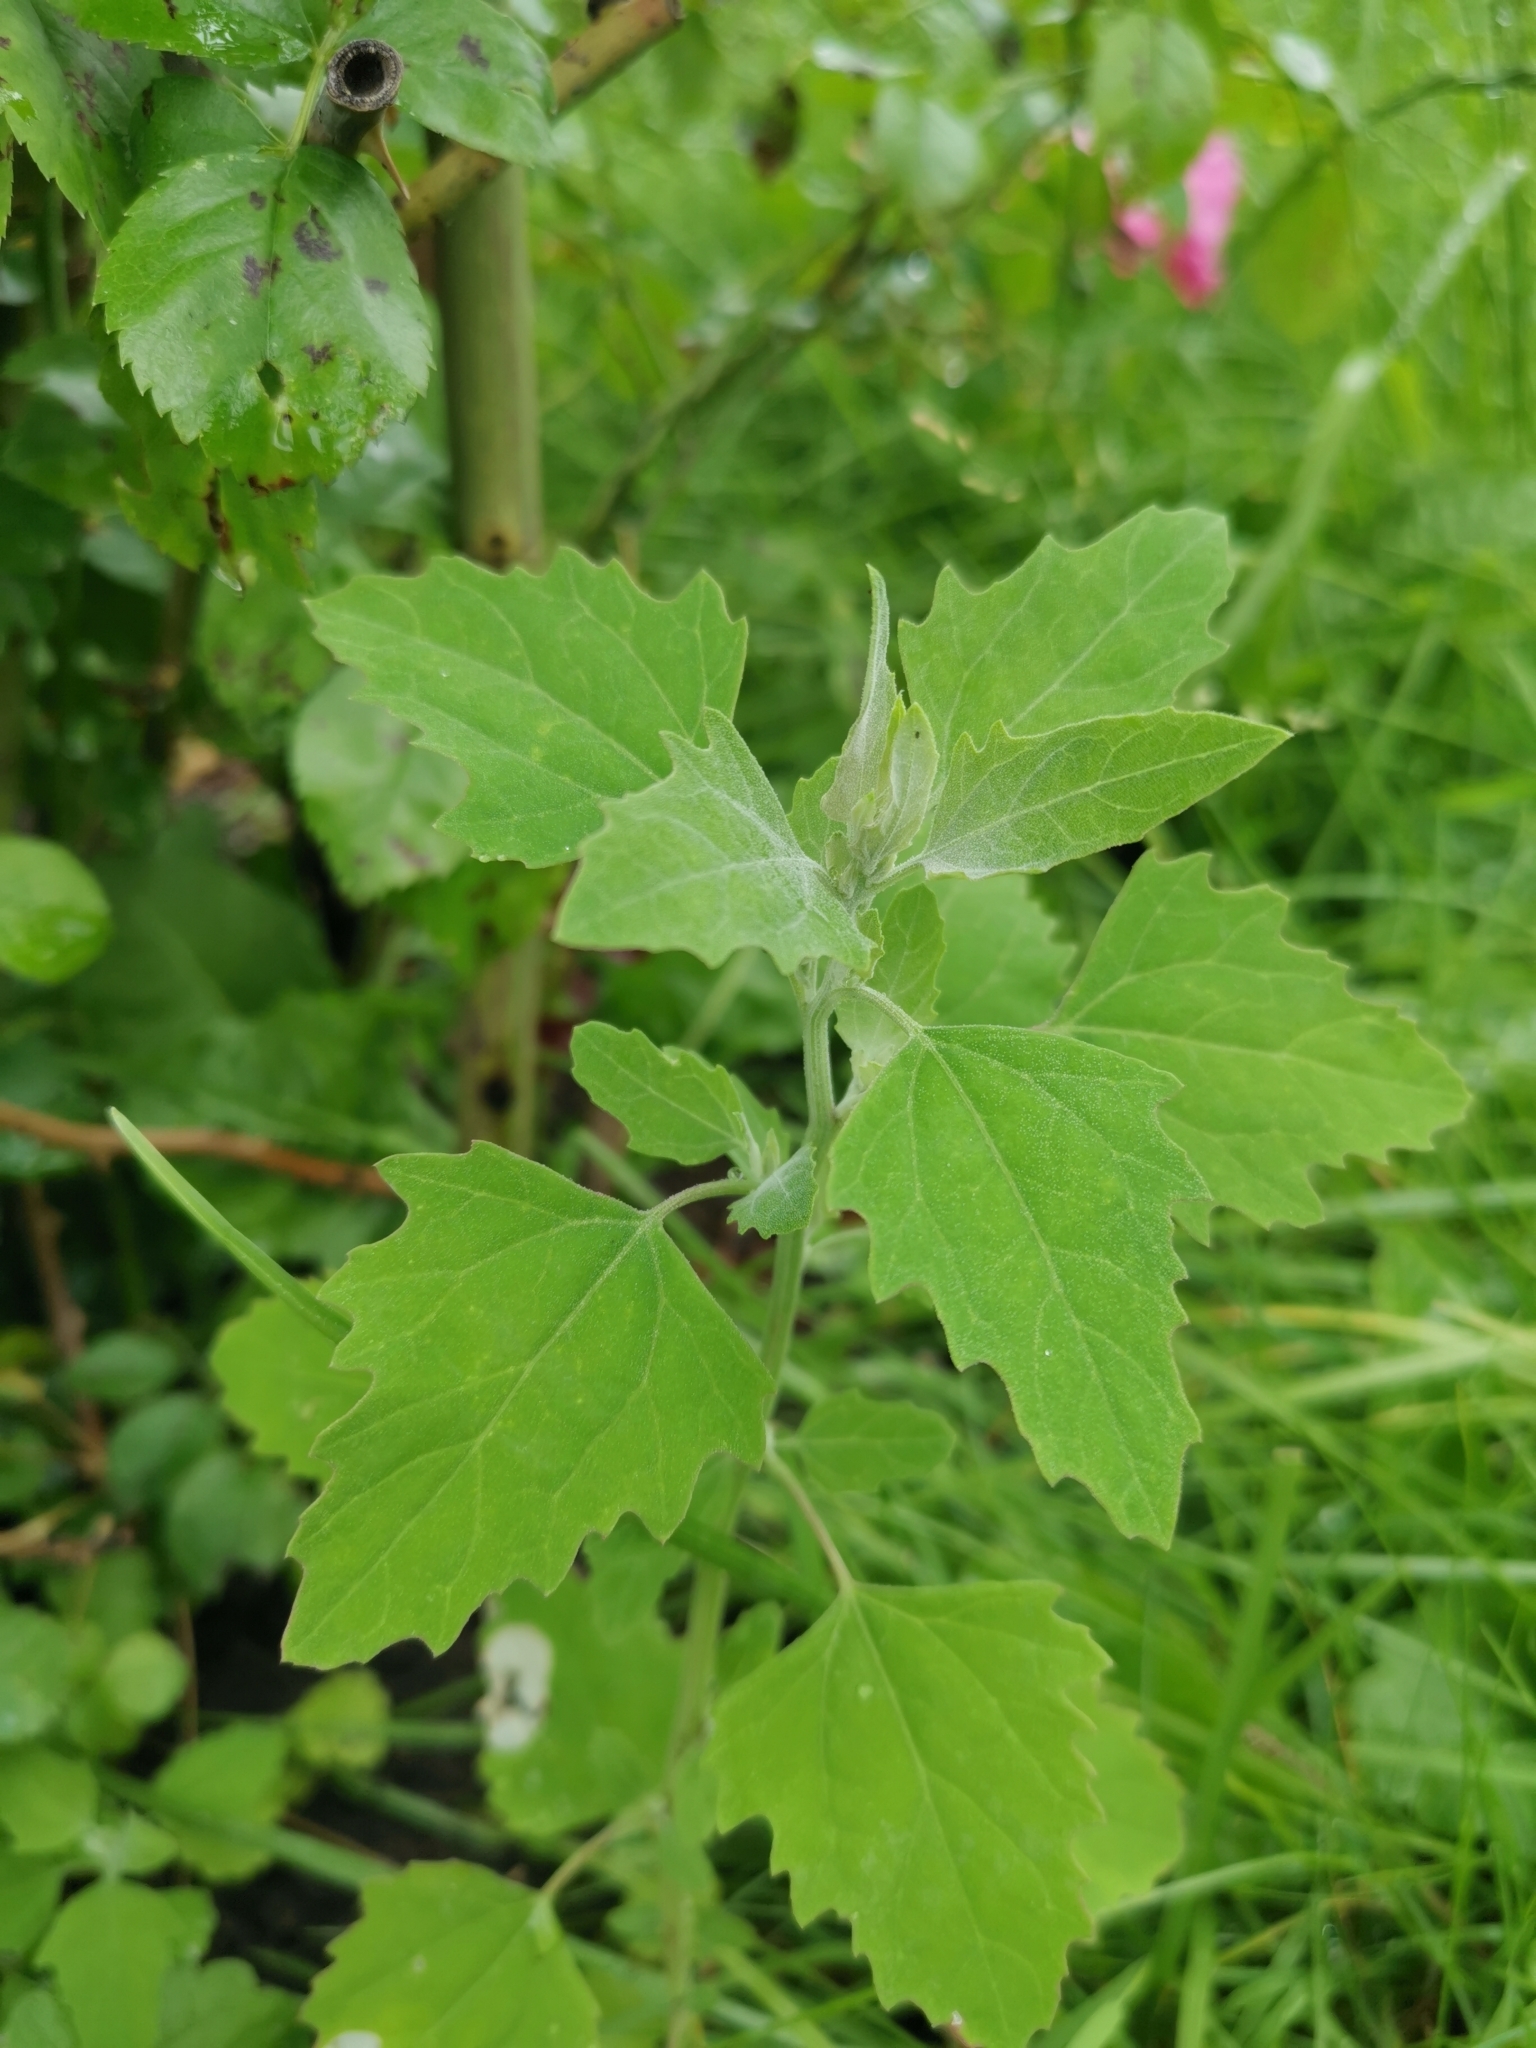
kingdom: Plantae
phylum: Tracheophyta
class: Magnoliopsida
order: Caryophyllales
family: Amaranthaceae
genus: Chenopodium
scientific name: Chenopodium album
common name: Fat-hen
